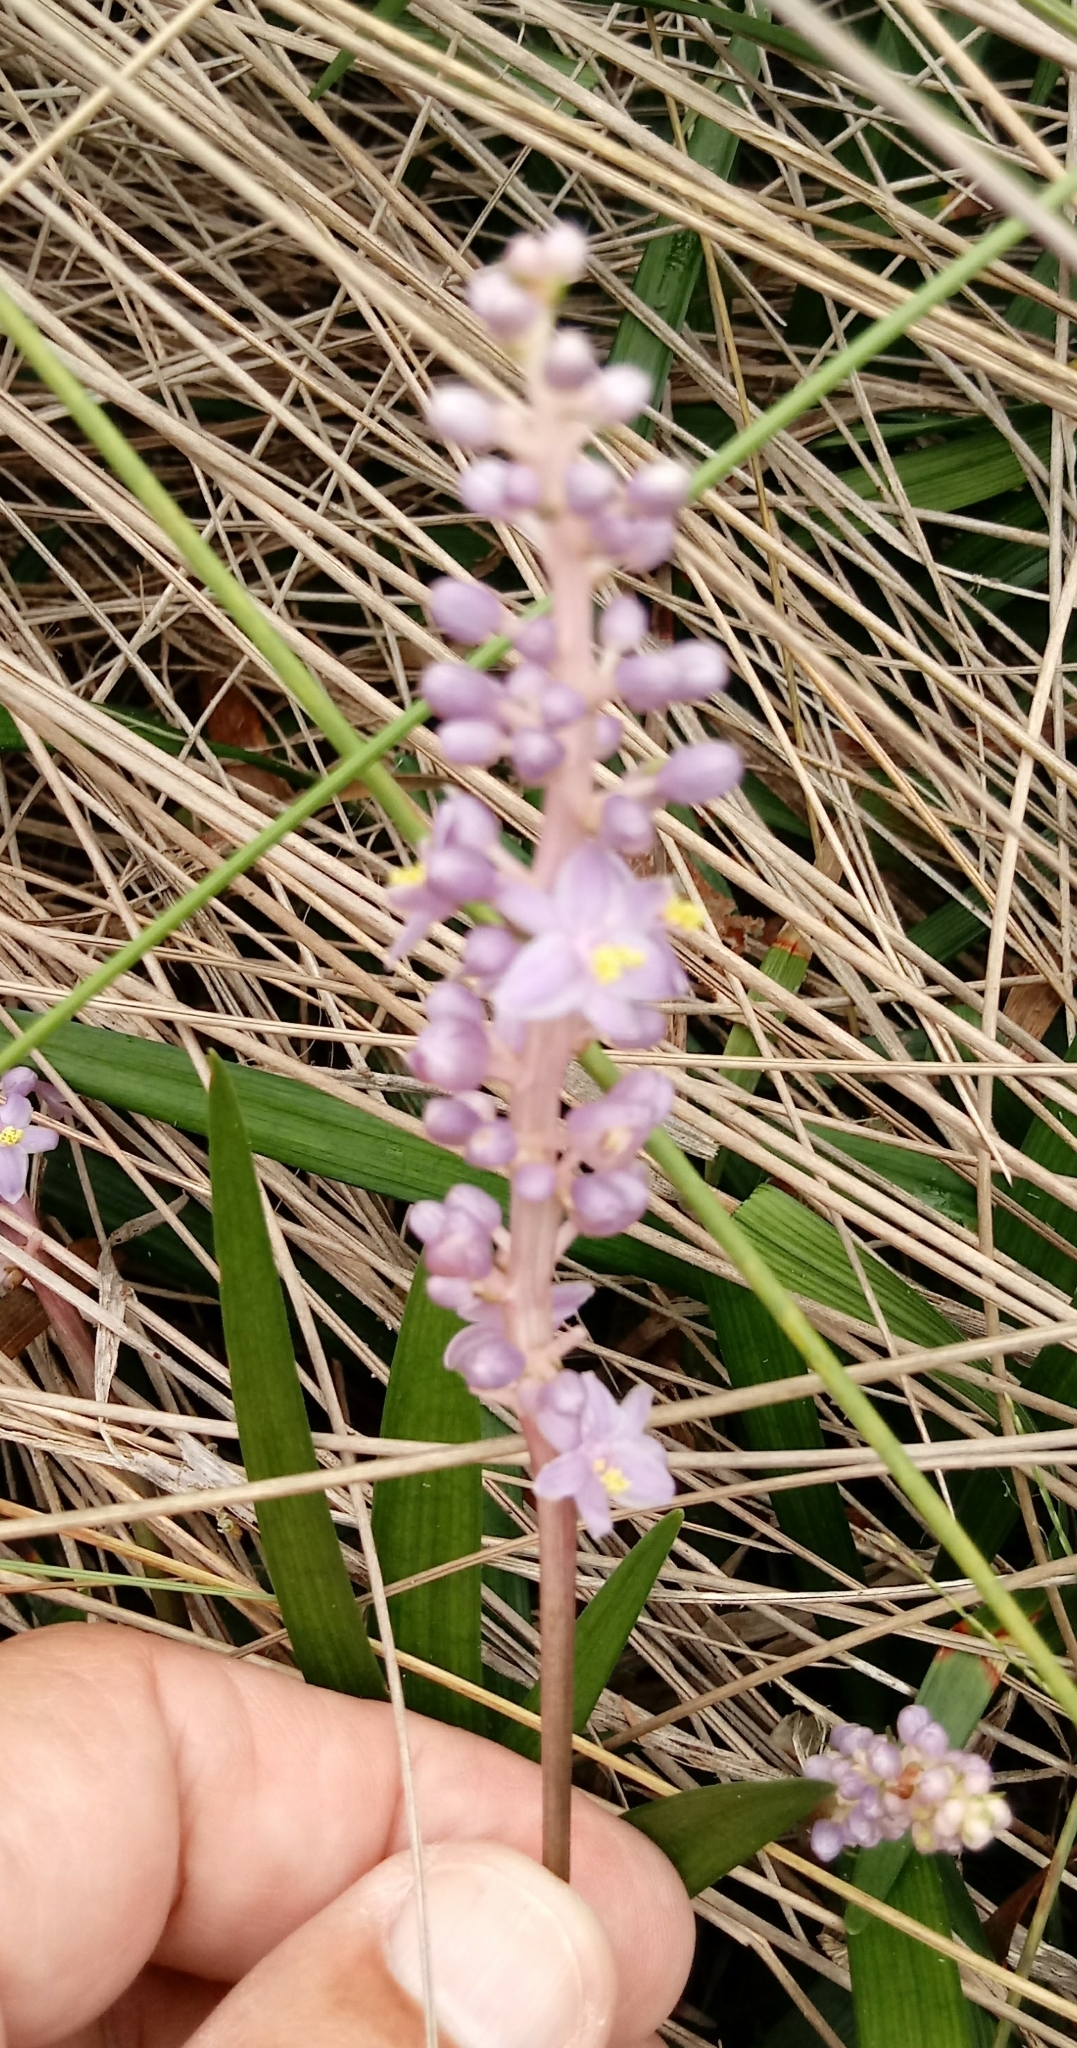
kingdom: Plantae
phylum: Tracheophyta
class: Liliopsida
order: Asparagales
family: Asparagaceae
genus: Liriope
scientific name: Liriope muscari
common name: Big blue lilyturf
